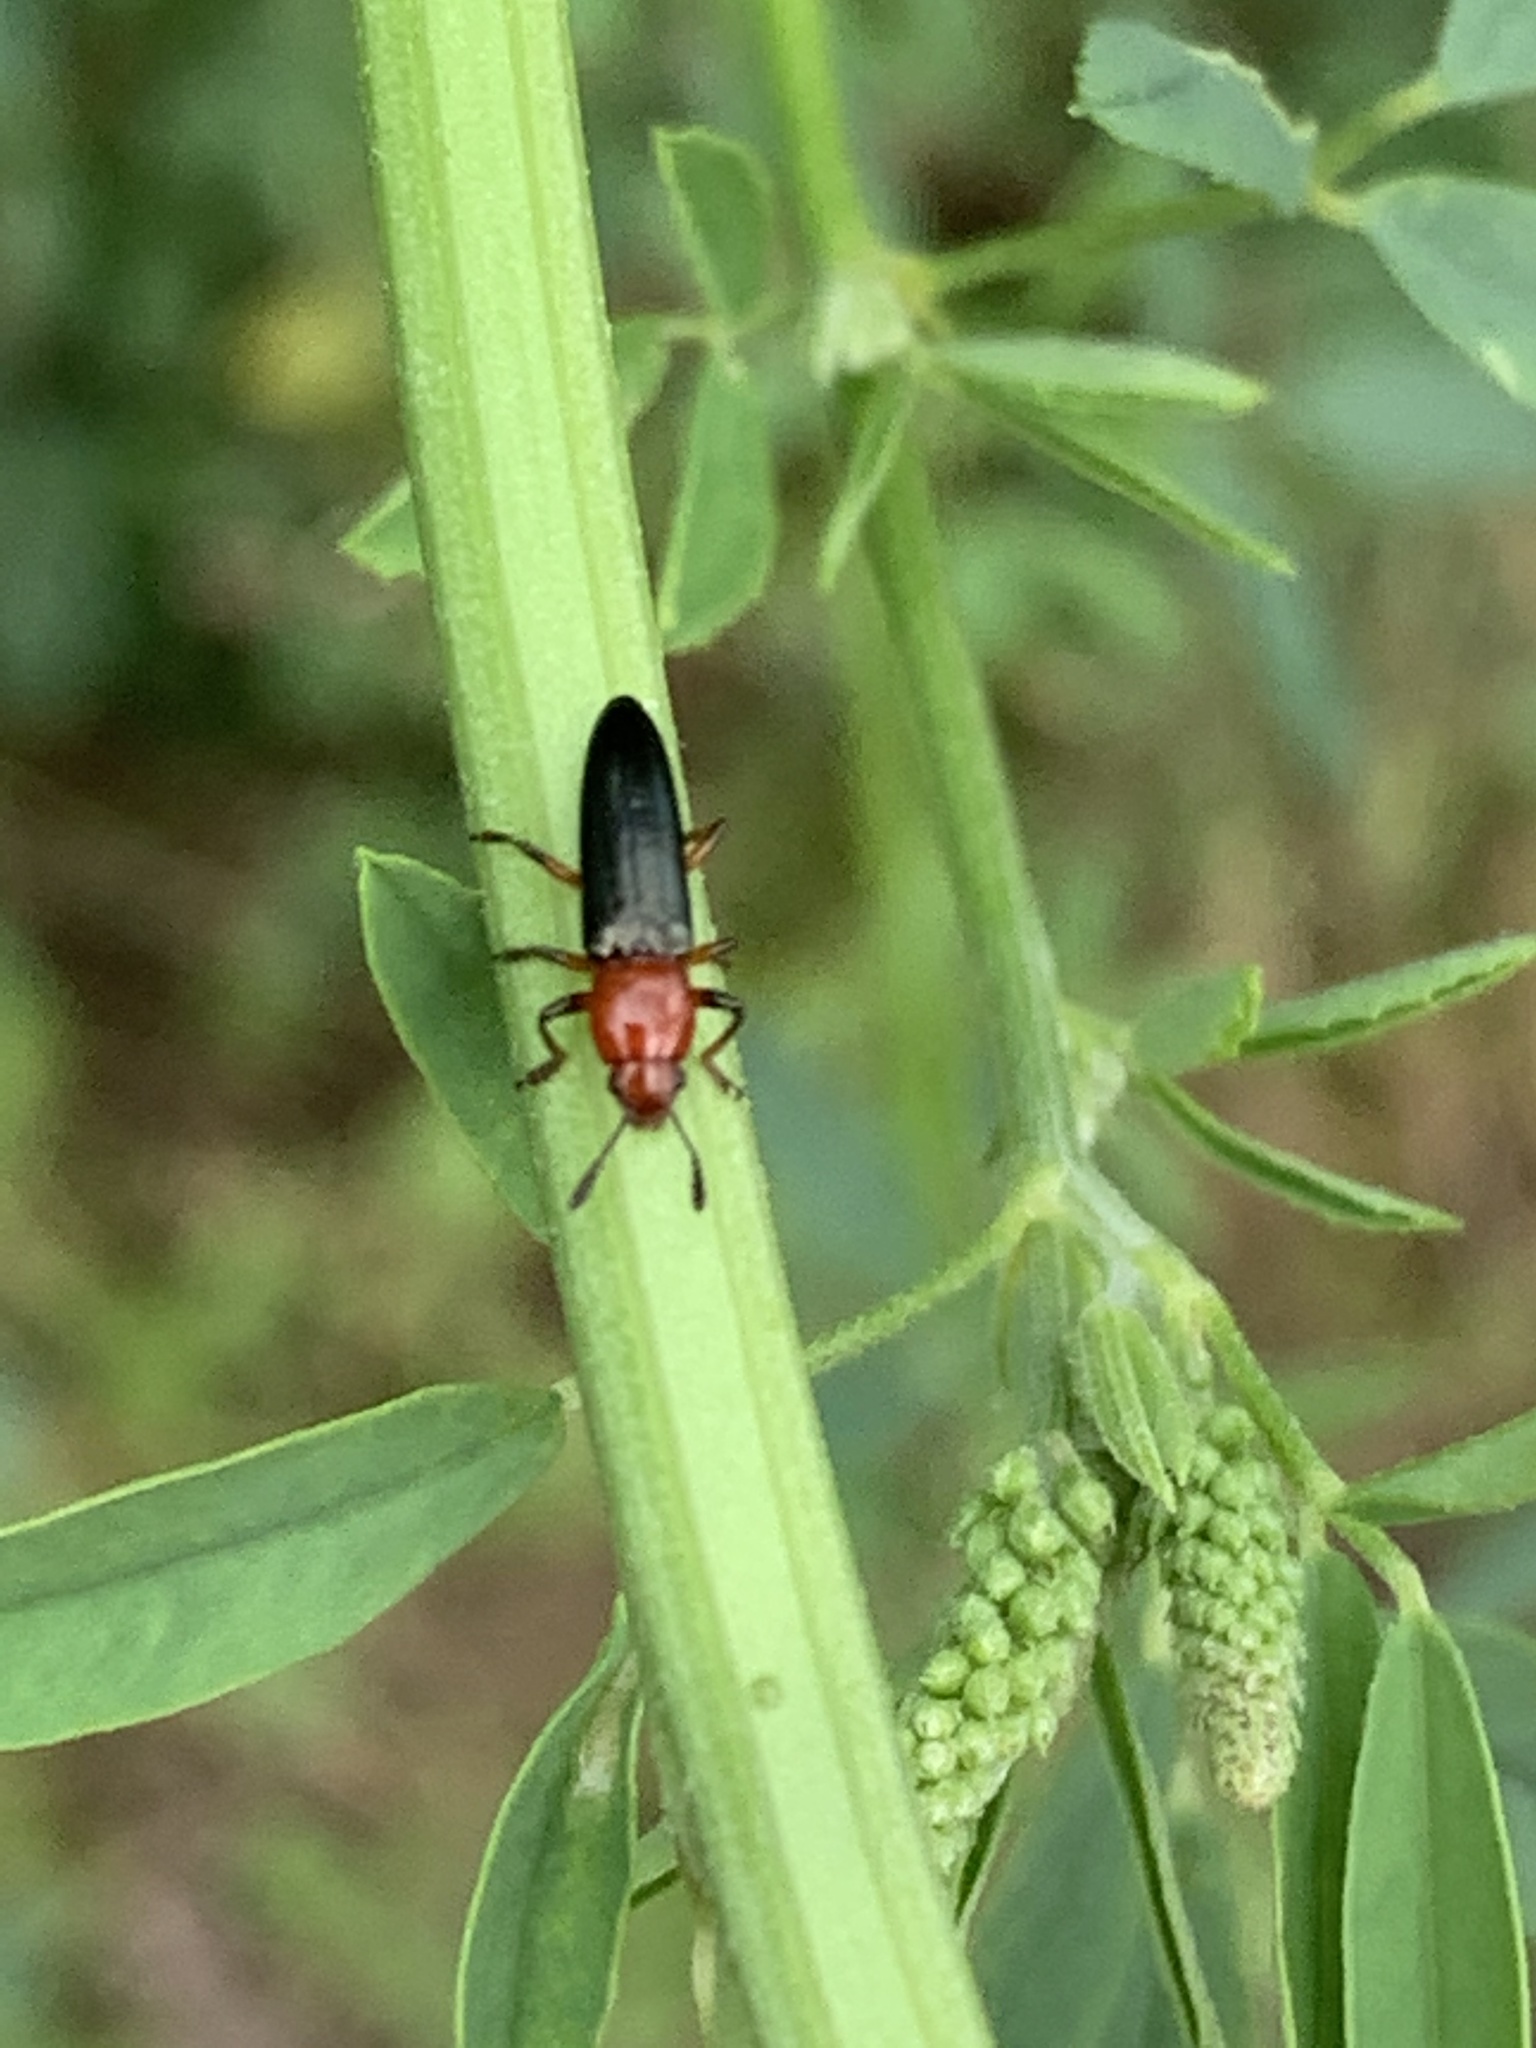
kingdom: Animalia
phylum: Arthropoda
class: Insecta
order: Coleoptera
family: Erotylidae
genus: Languria
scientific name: Languria mozardi
